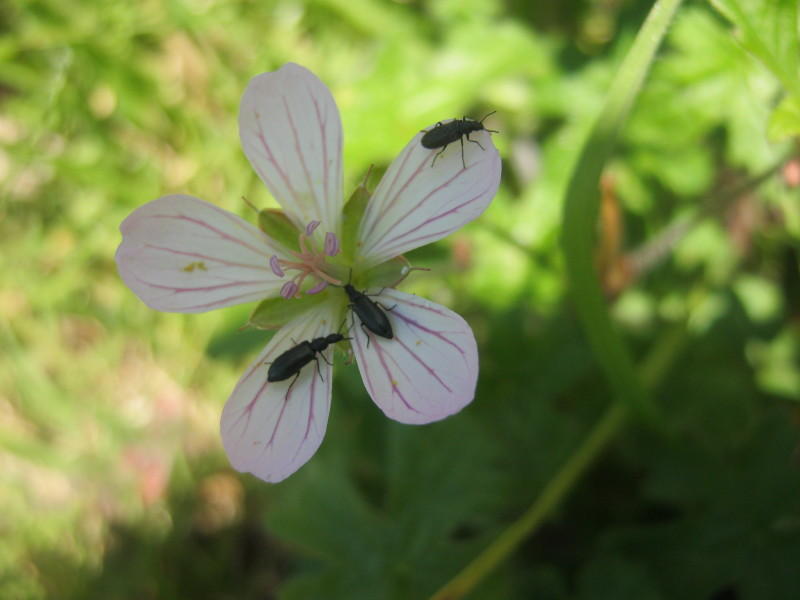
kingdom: Plantae
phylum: Tracheophyta
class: Magnoliopsida
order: Geraniales
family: Geraniaceae
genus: Geranium
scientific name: Geranium ornithopodon
